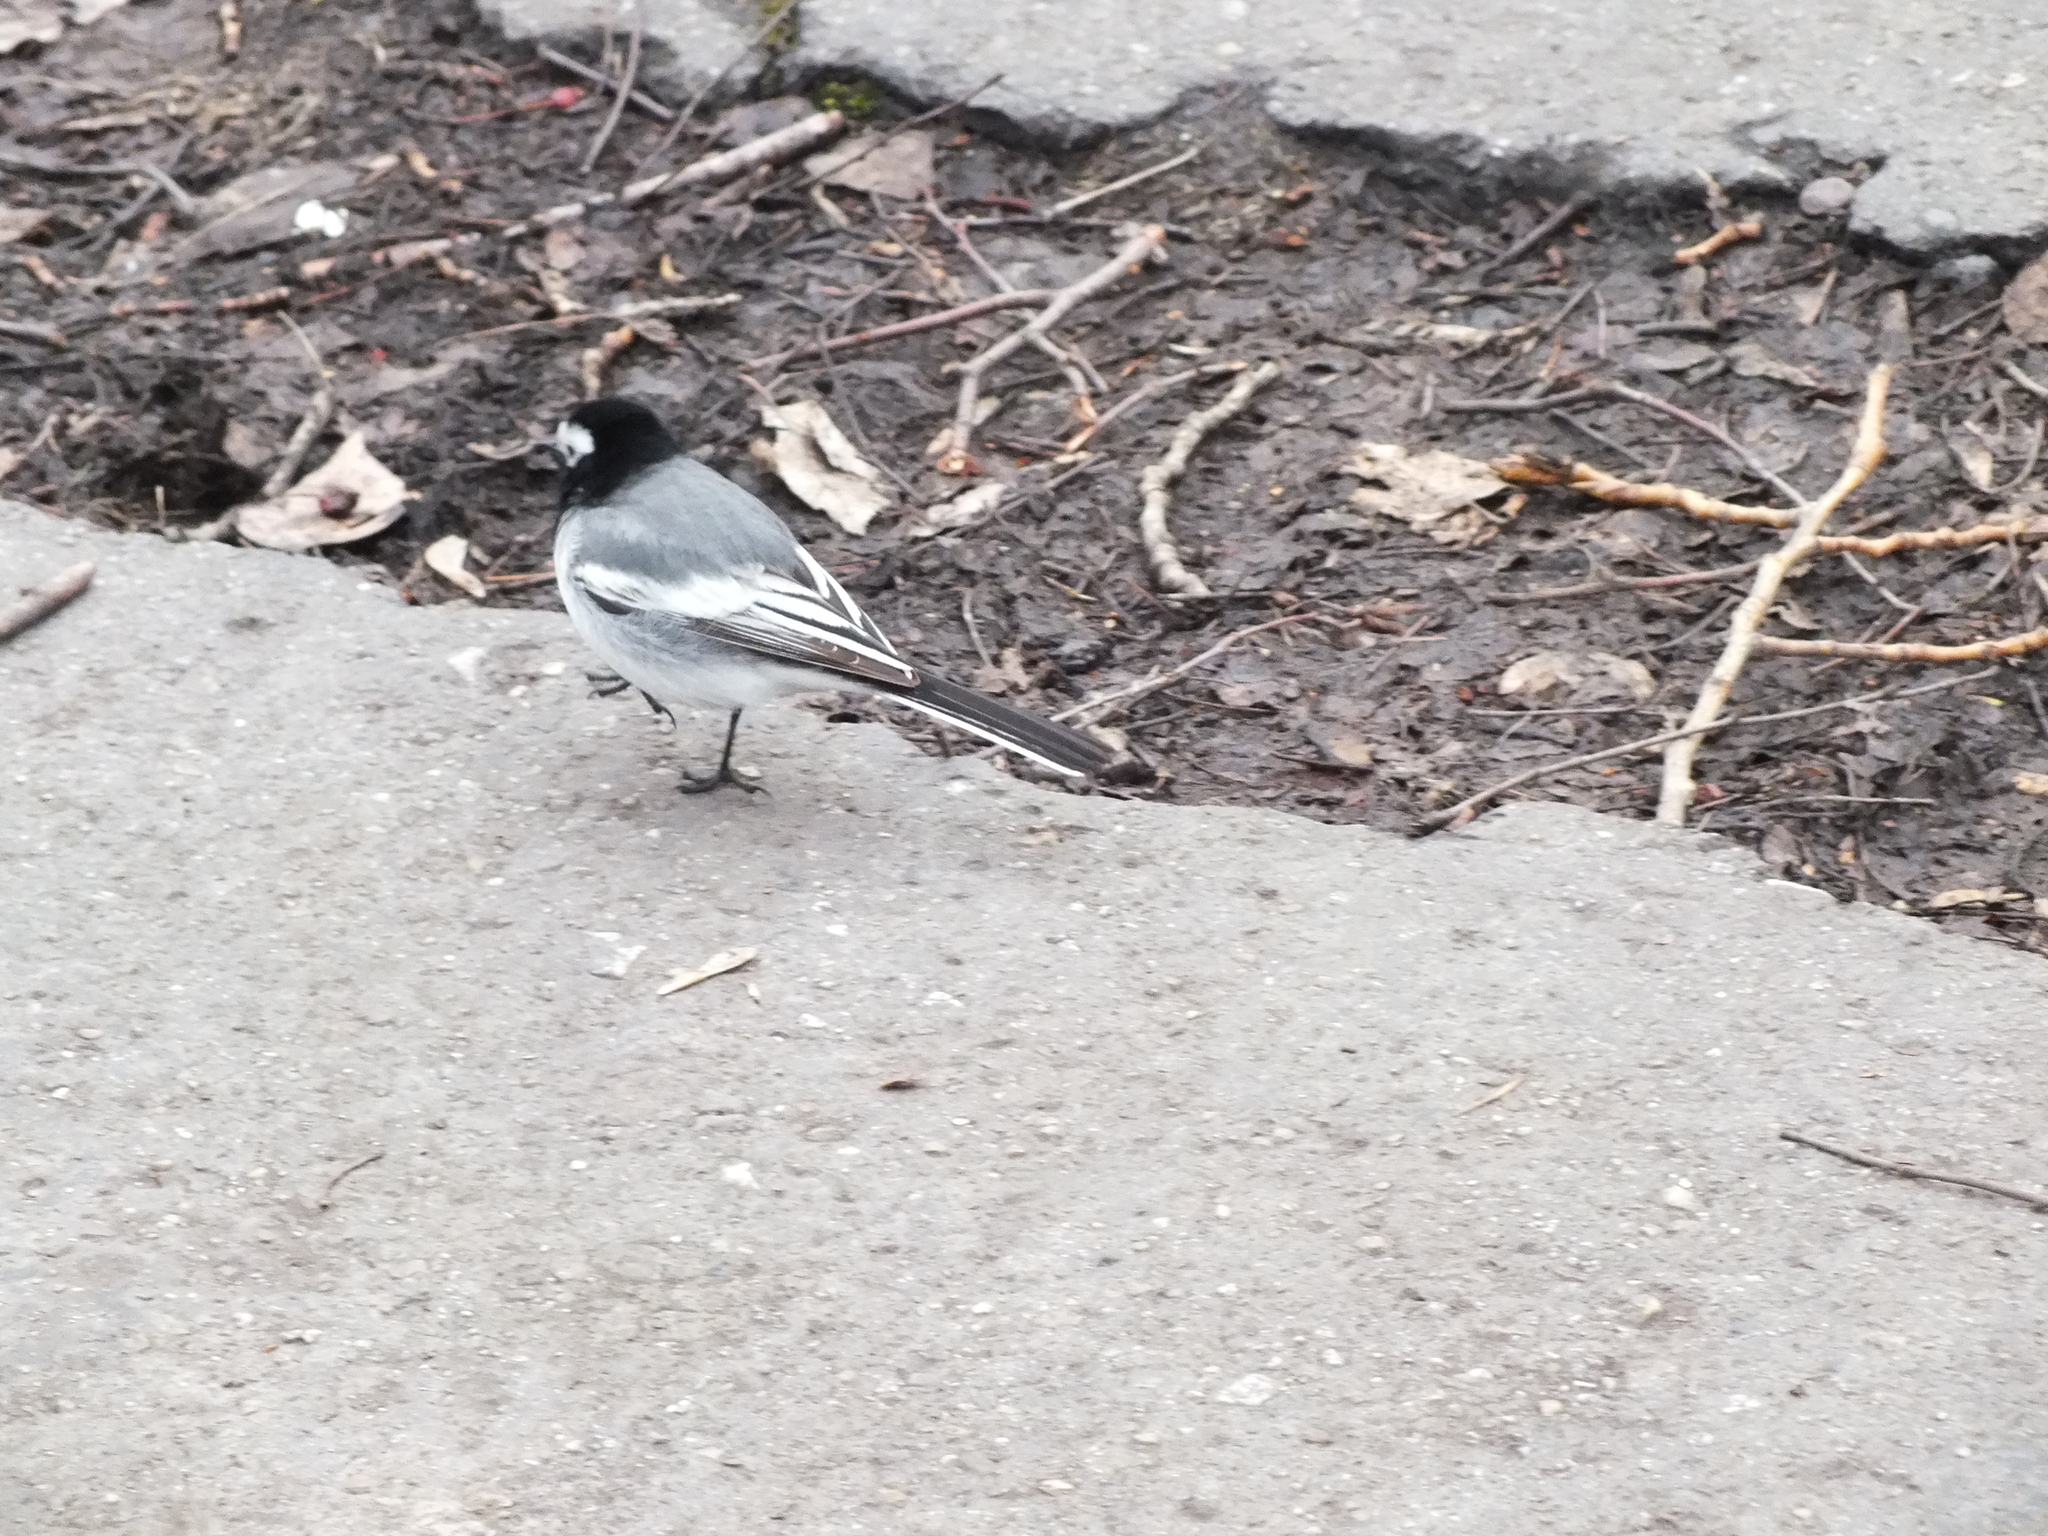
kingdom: Animalia
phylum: Chordata
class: Aves
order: Passeriformes
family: Motacillidae
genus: Motacilla
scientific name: Motacilla alba
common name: White wagtail
